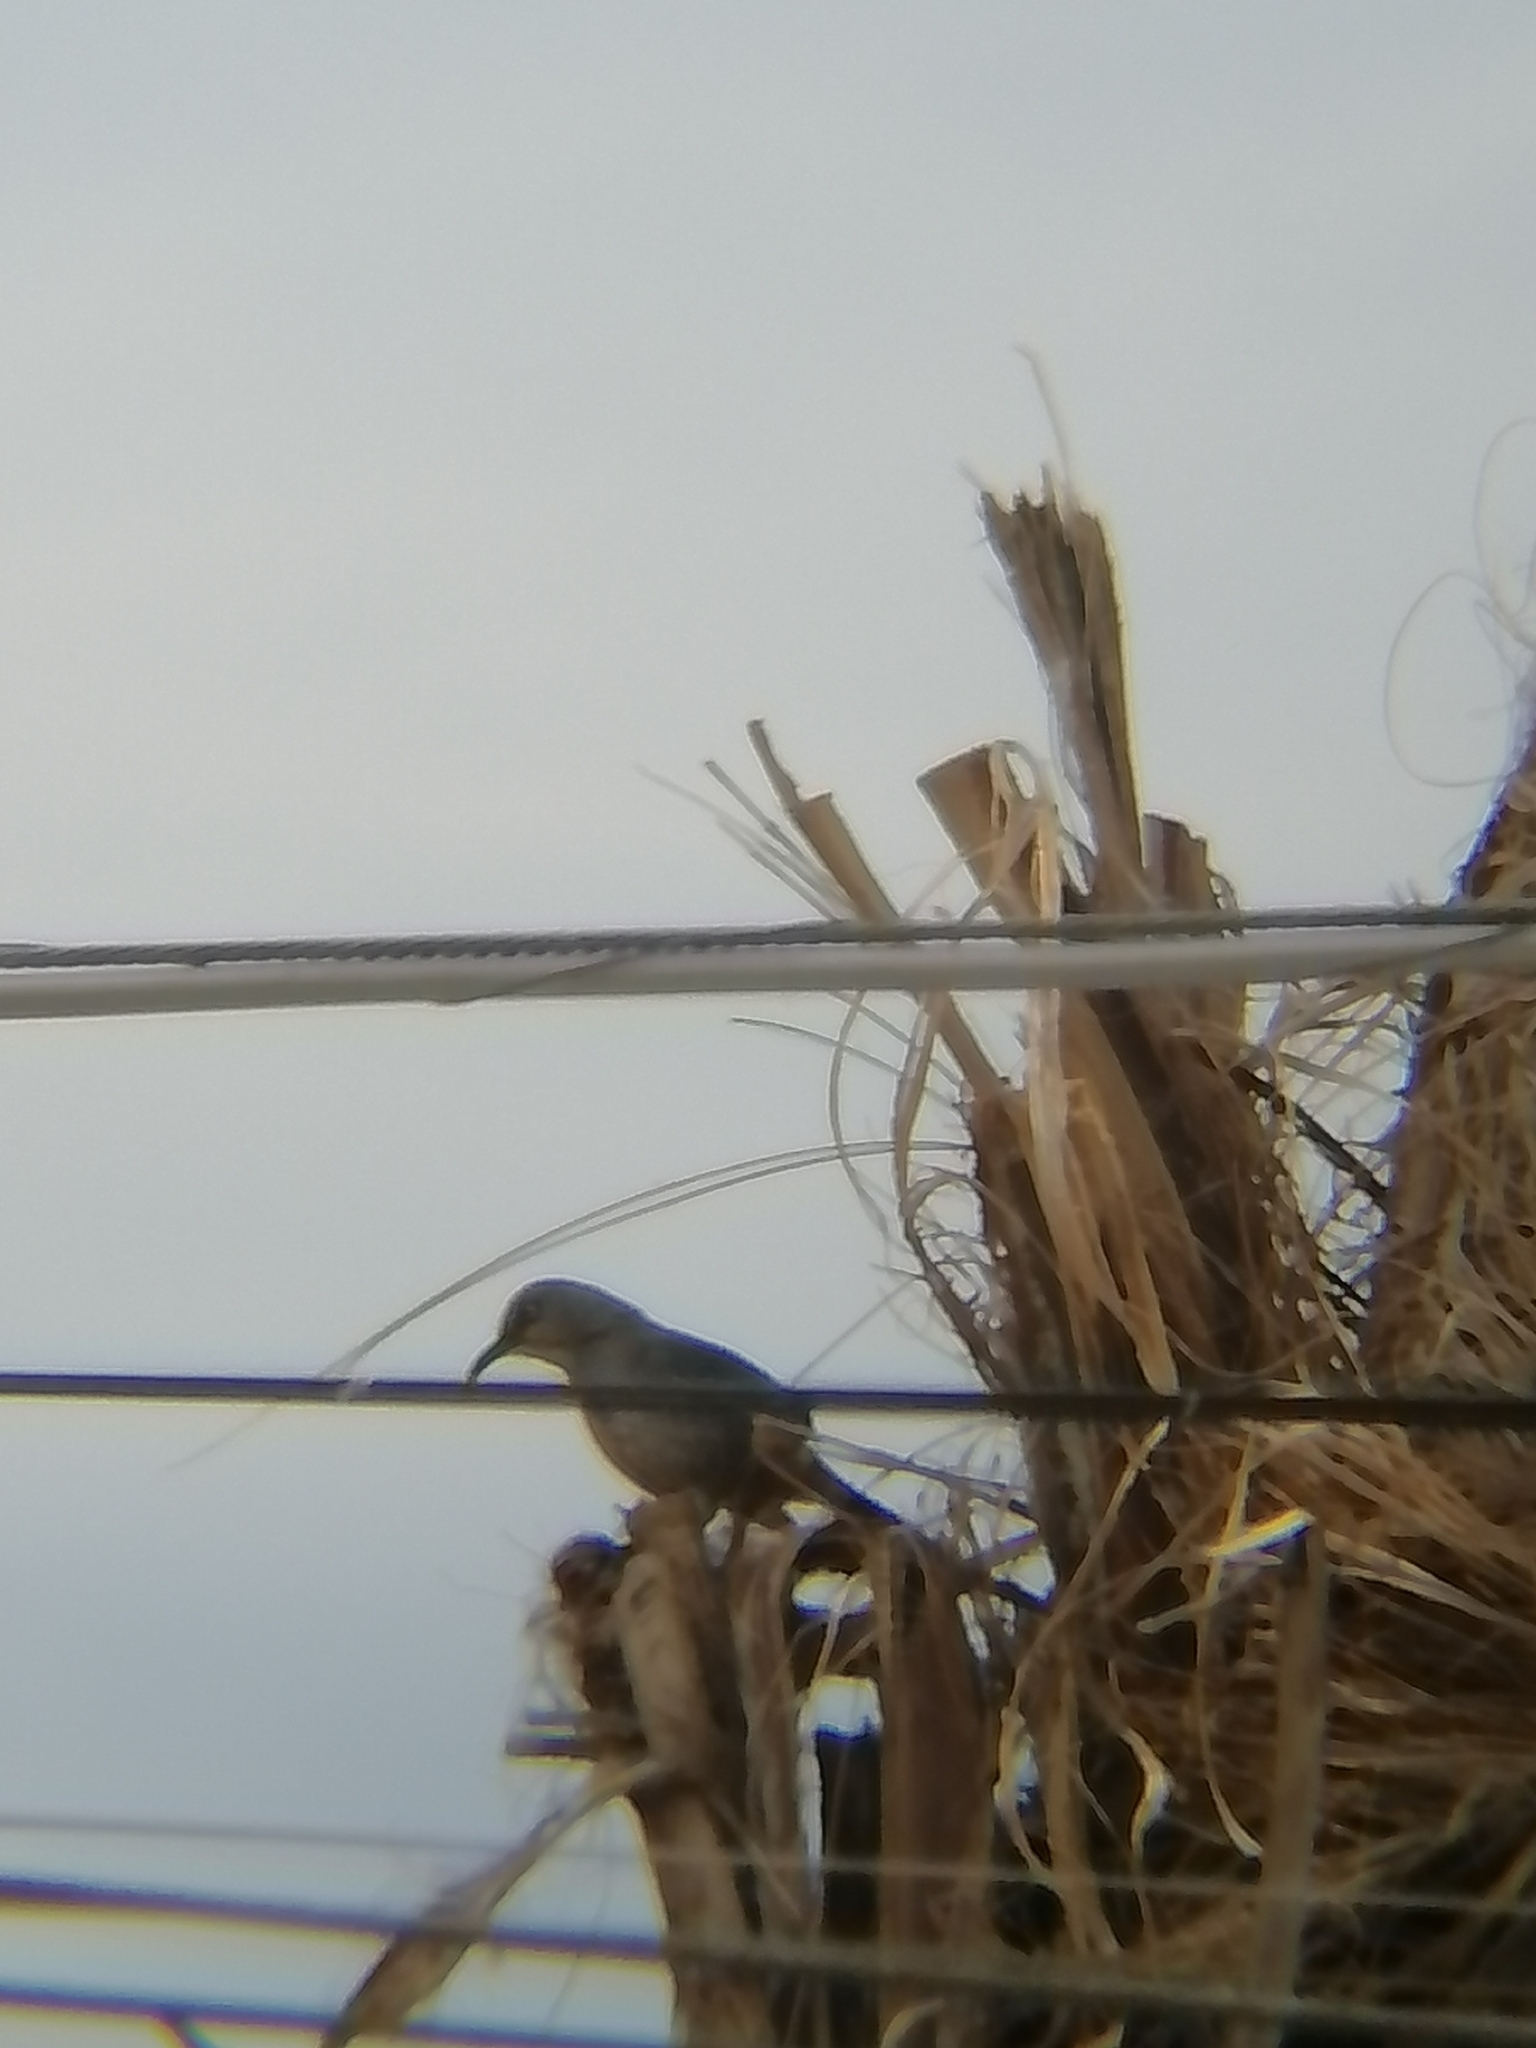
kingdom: Animalia
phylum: Chordata
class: Aves
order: Passeriformes
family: Mimidae
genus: Toxostoma
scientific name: Toxostoma curvirostre
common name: Curve-billed thrasher
